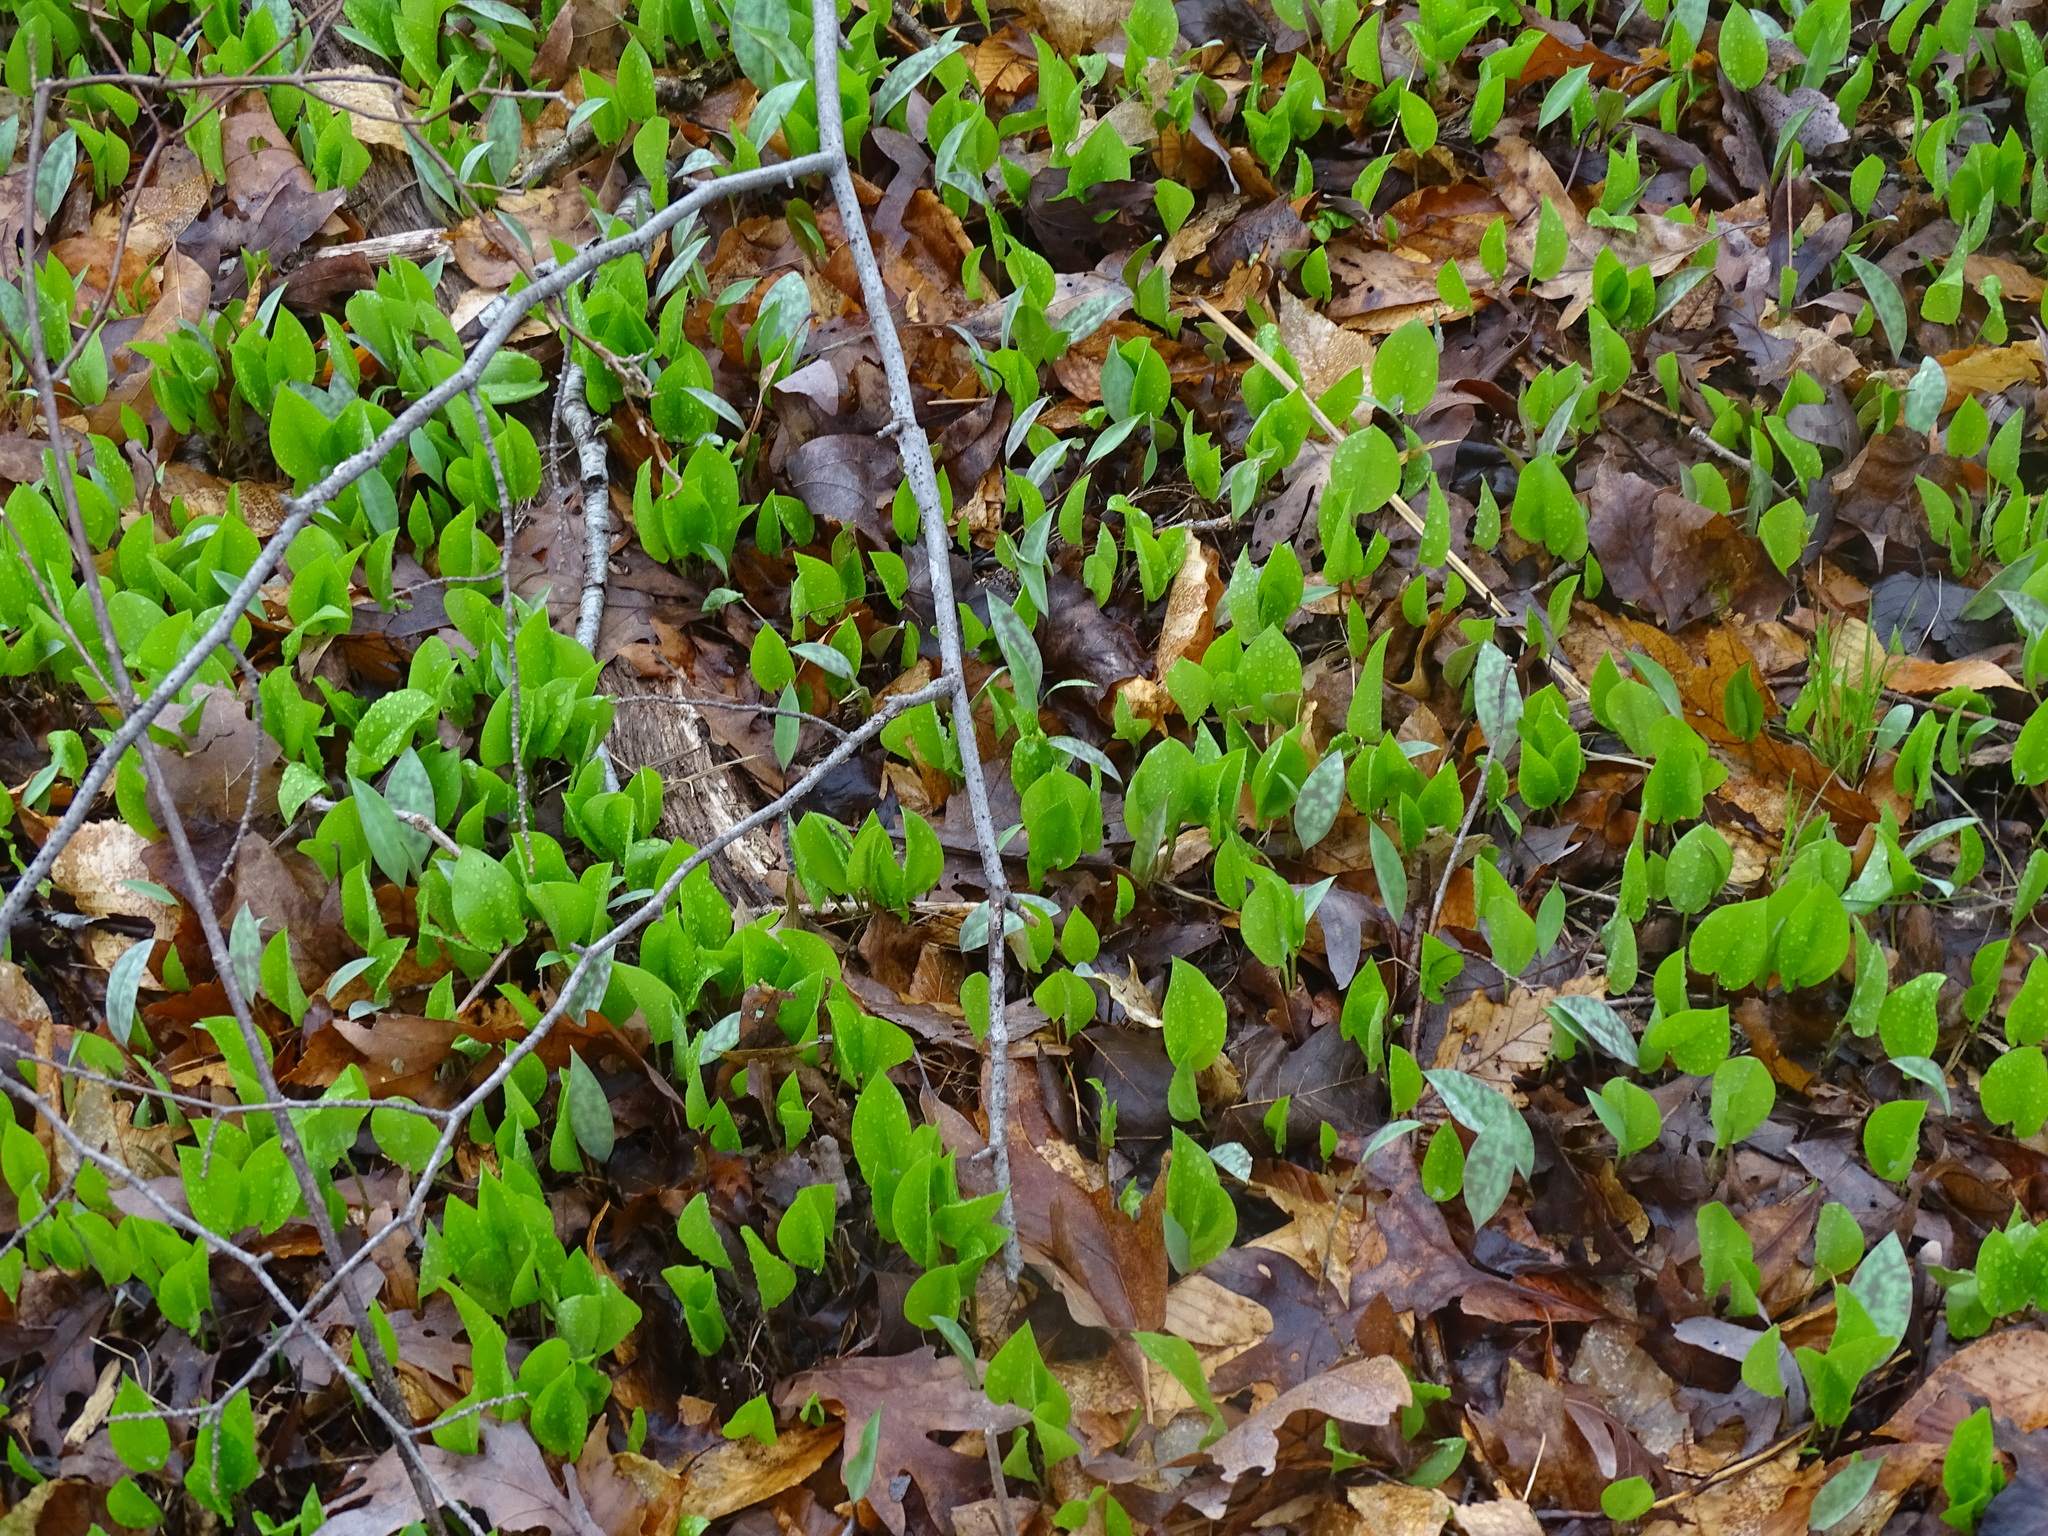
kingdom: Plantae
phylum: Tracheophyta
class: Liliopsida
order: Asparagales
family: Asparagaceae
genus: Maianthemum
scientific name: Maianthemum canadense
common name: False lily-of-the-valley
